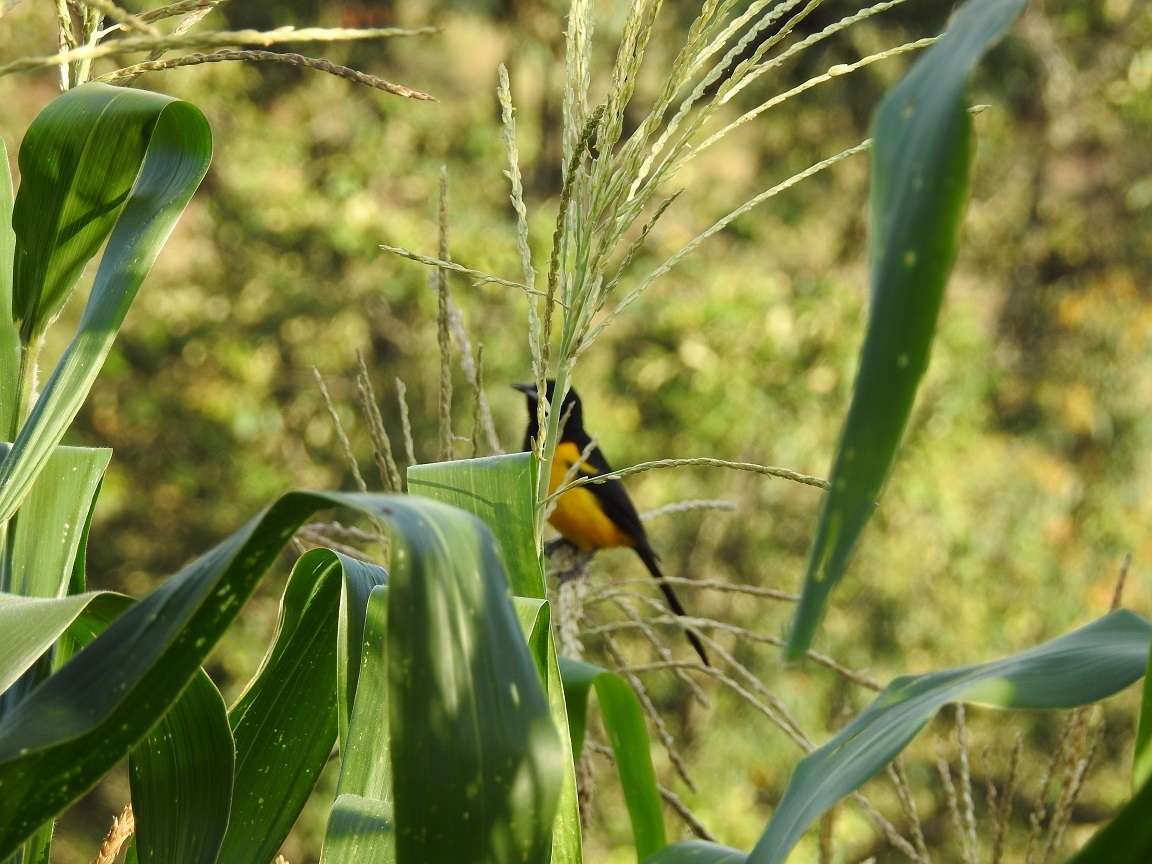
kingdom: Animalia
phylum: Chordata
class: Aves
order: Passeriformes
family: Icteridae
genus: Icterus
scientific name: Icterus prosthemelas
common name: Black-cowled oriole
